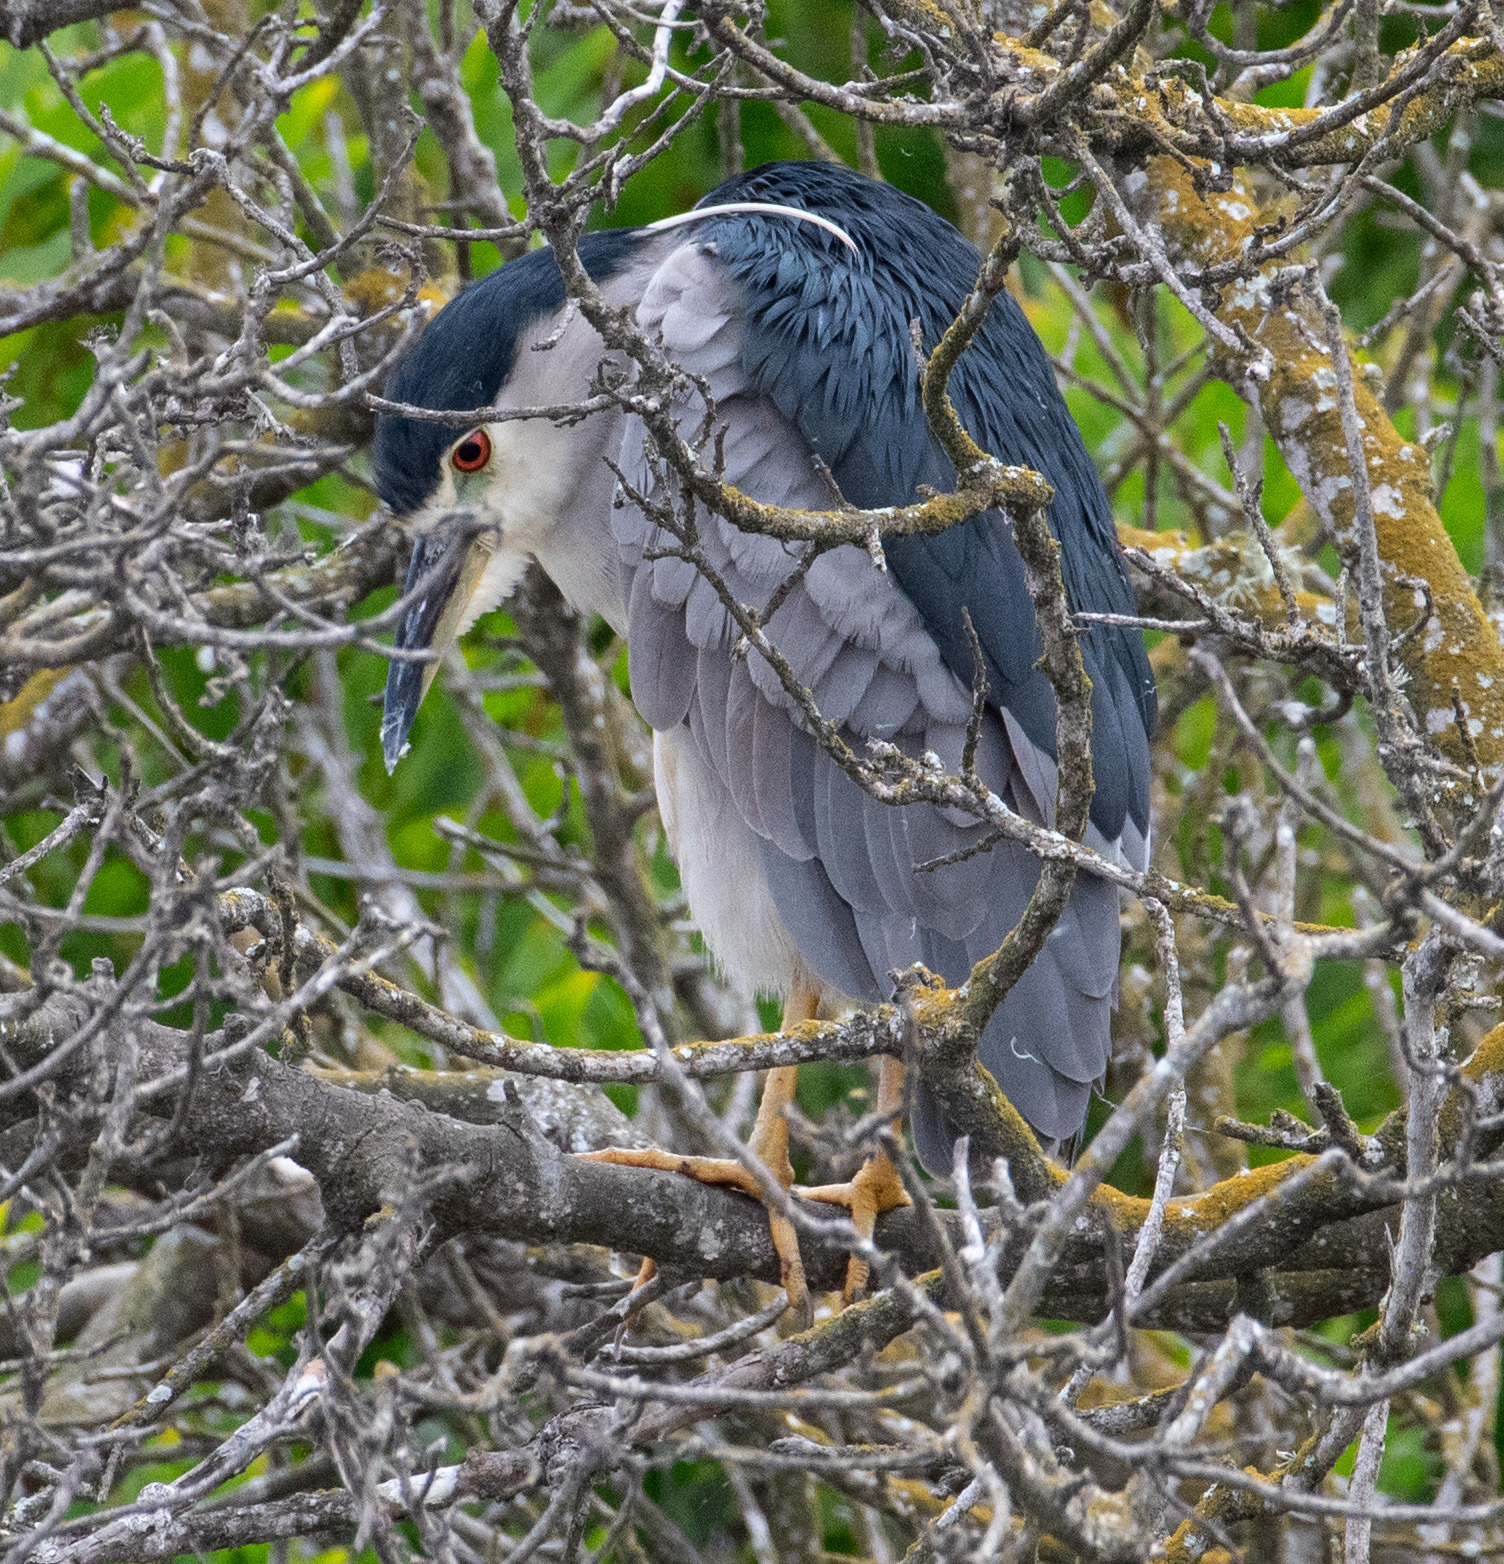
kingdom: Animalia
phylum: Chordata
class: Aves
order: Pelecaniformes
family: Ardeidae
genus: Nycticorax
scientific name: Nycticorax nycticorax
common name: Black-crowned night heron
